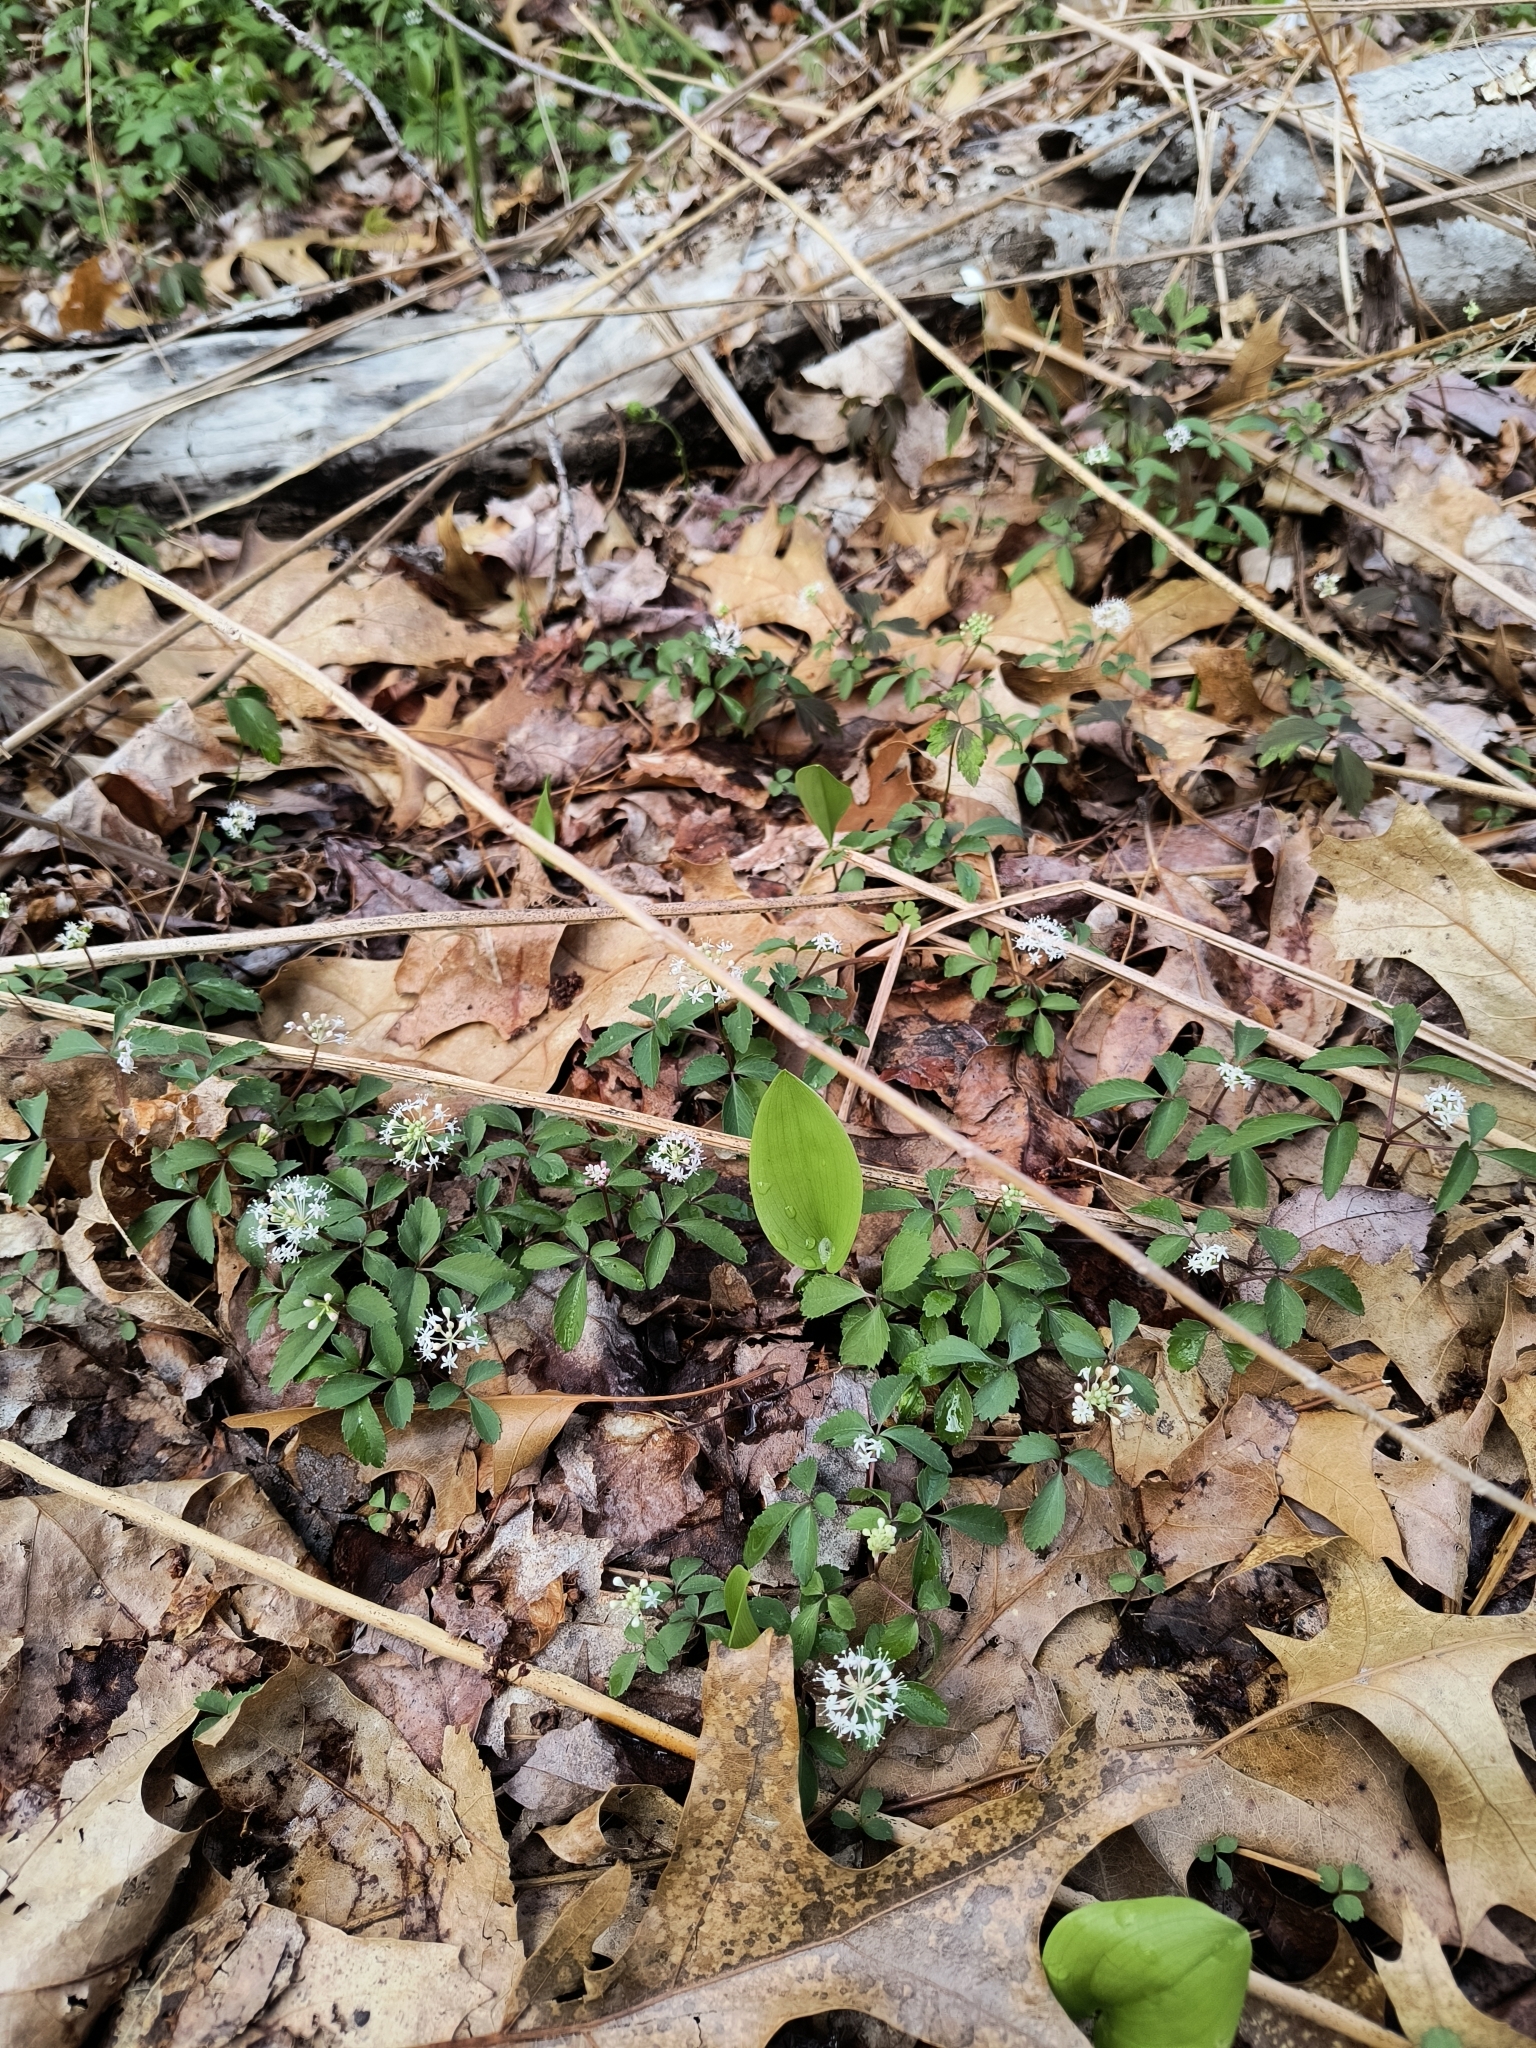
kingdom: Plantae
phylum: Tracheophyta
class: Magnoliopsida
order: Apiales
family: Araliaceae
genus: Panax
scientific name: Panax trifolius
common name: Dwarf ginseng
